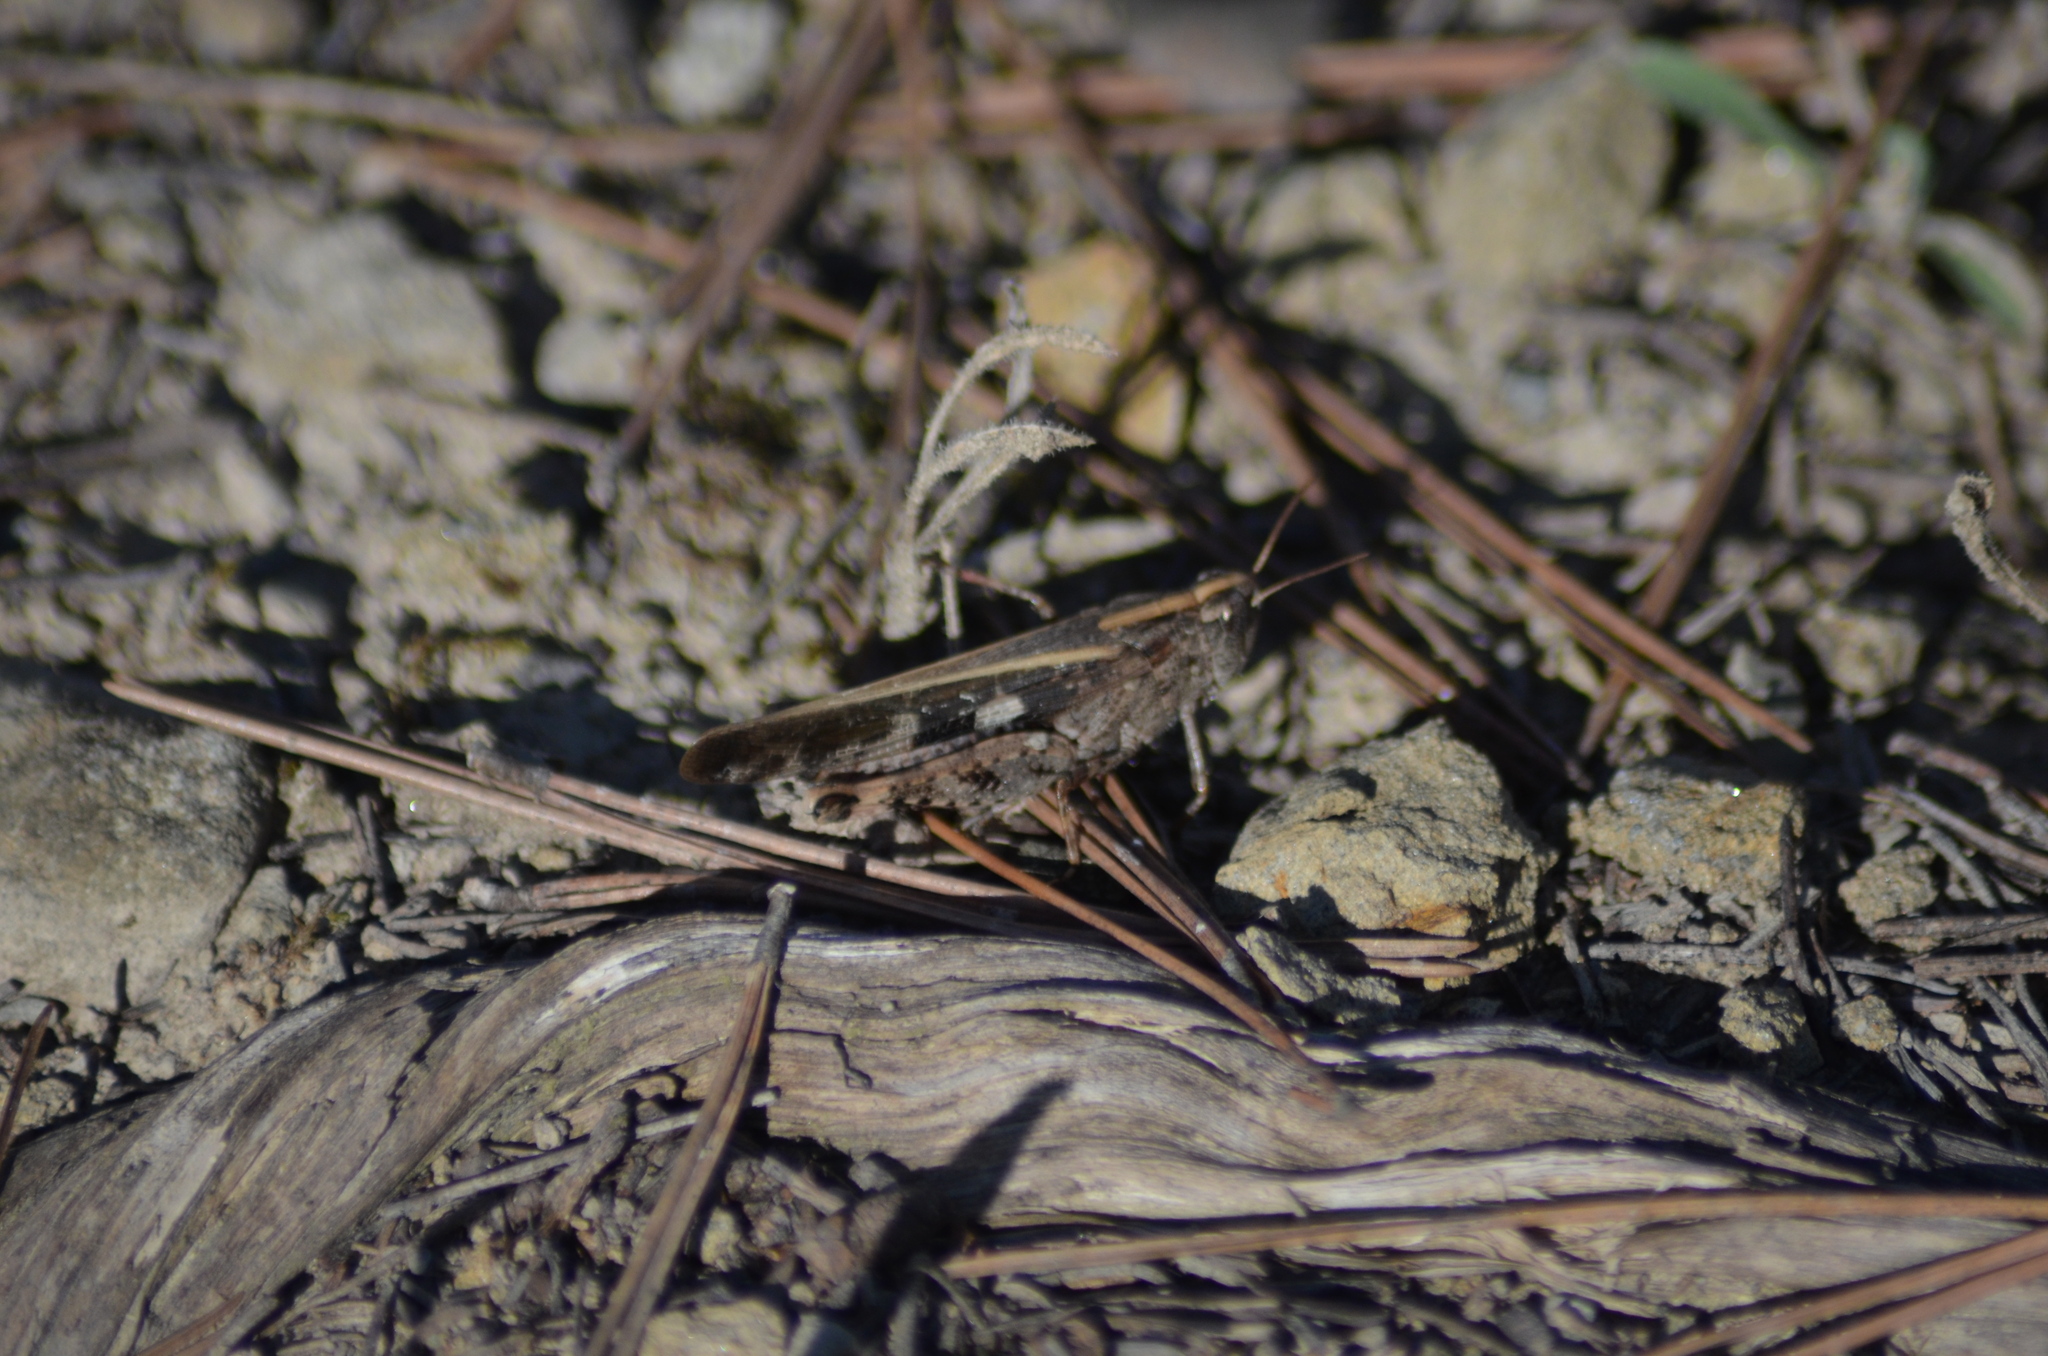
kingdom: Animalia
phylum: Arthropoda
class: Insecta
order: Orthoptera
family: Acrididae
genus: Aiolopus
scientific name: Aiolopus strepens
